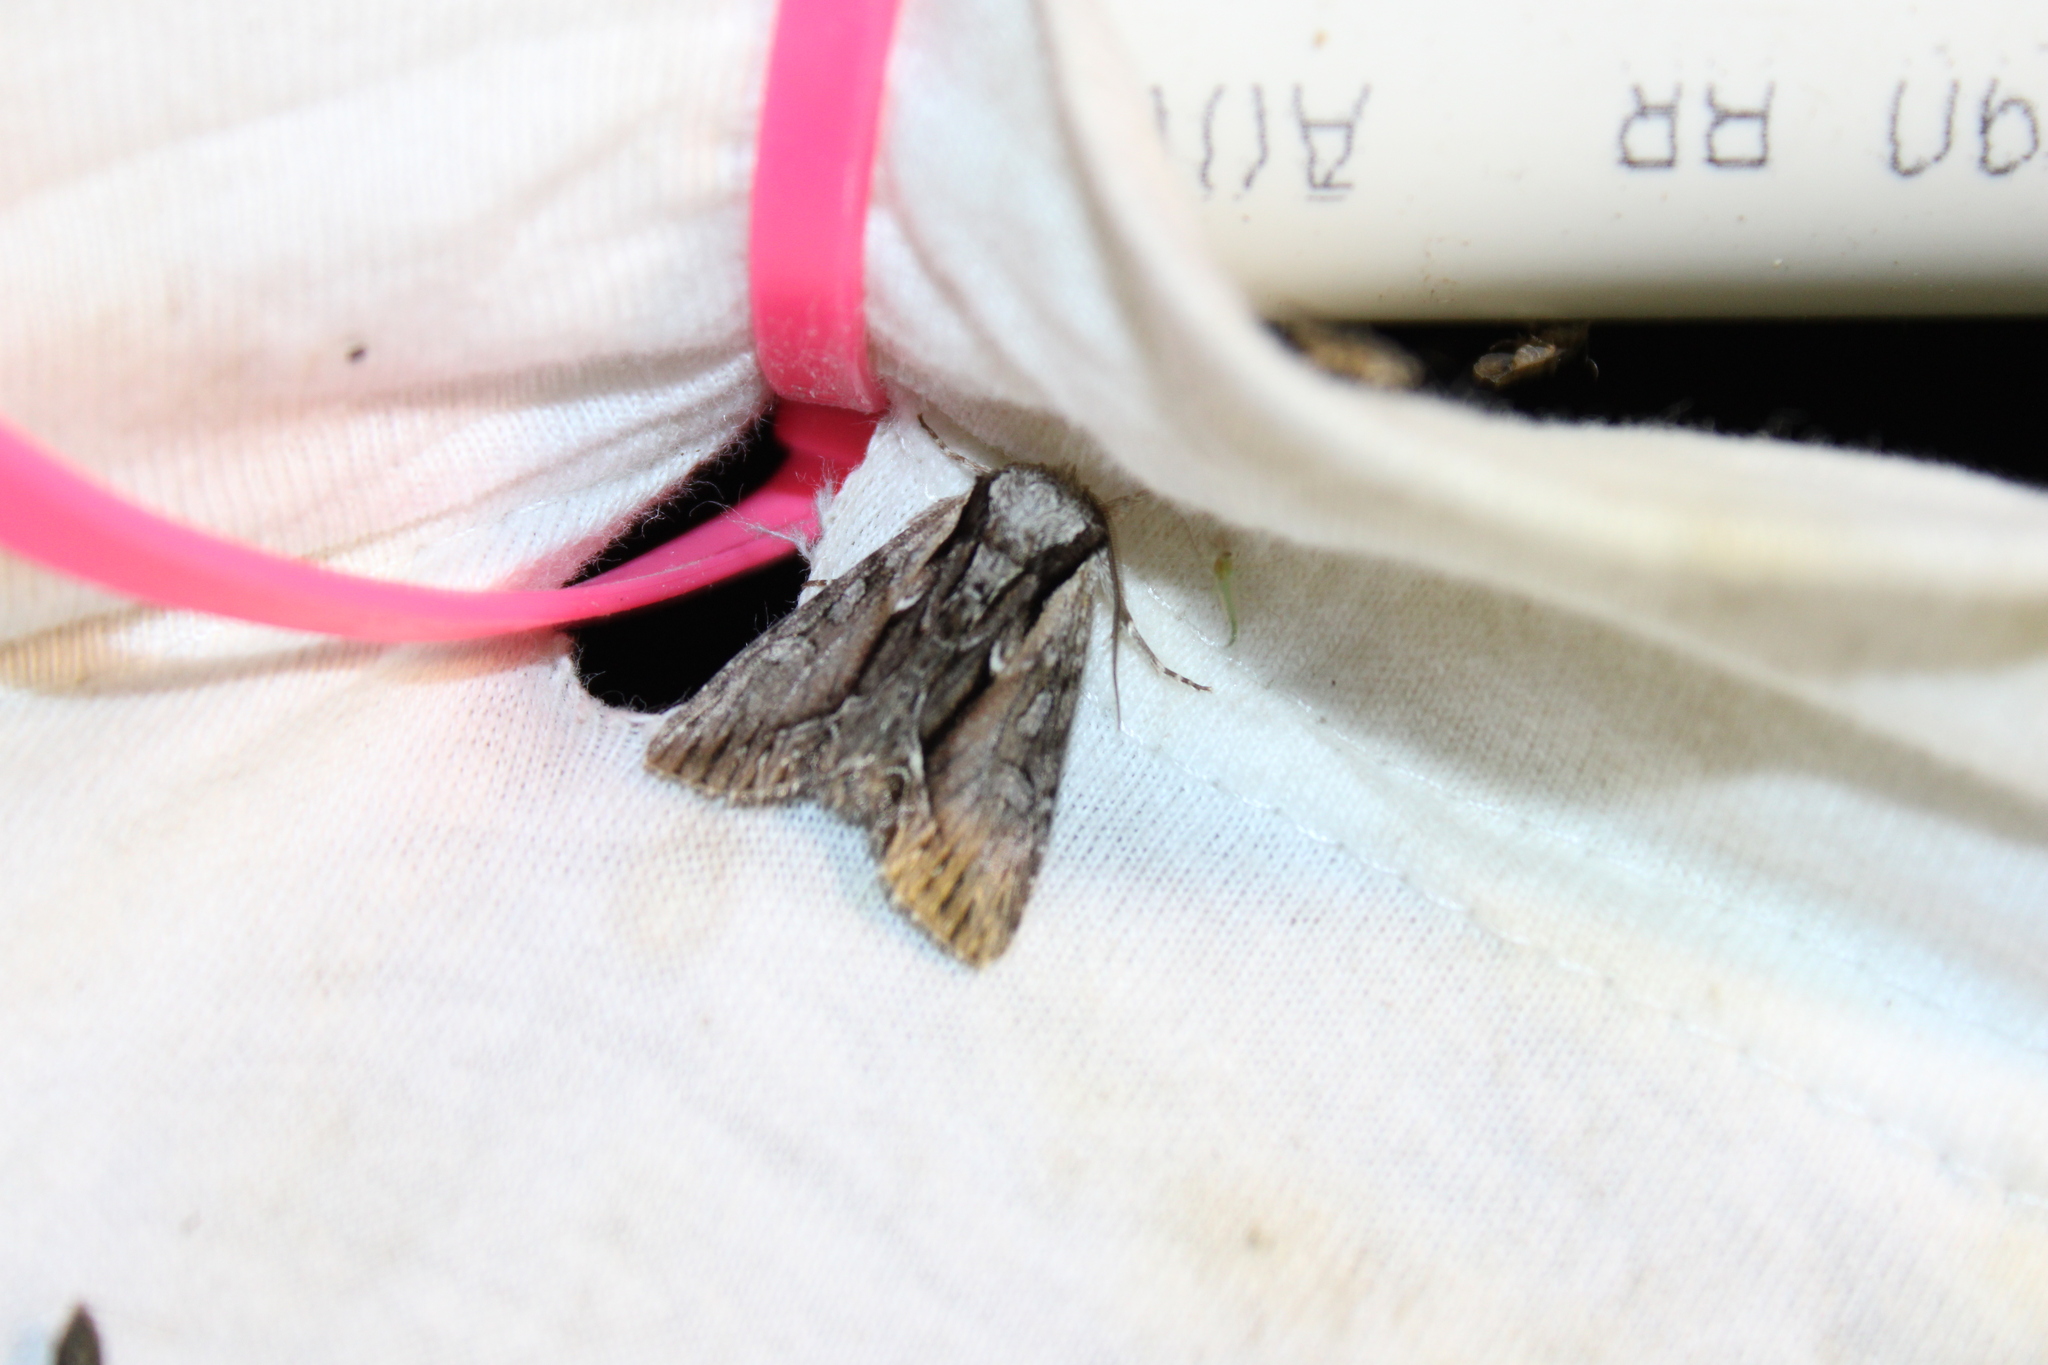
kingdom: Animalia
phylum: Arthropoda
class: Insecta
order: Lepidoptera
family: Noctuidae
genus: Hyppa
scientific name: Hyppa xylinoides
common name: Common hyppa moth
